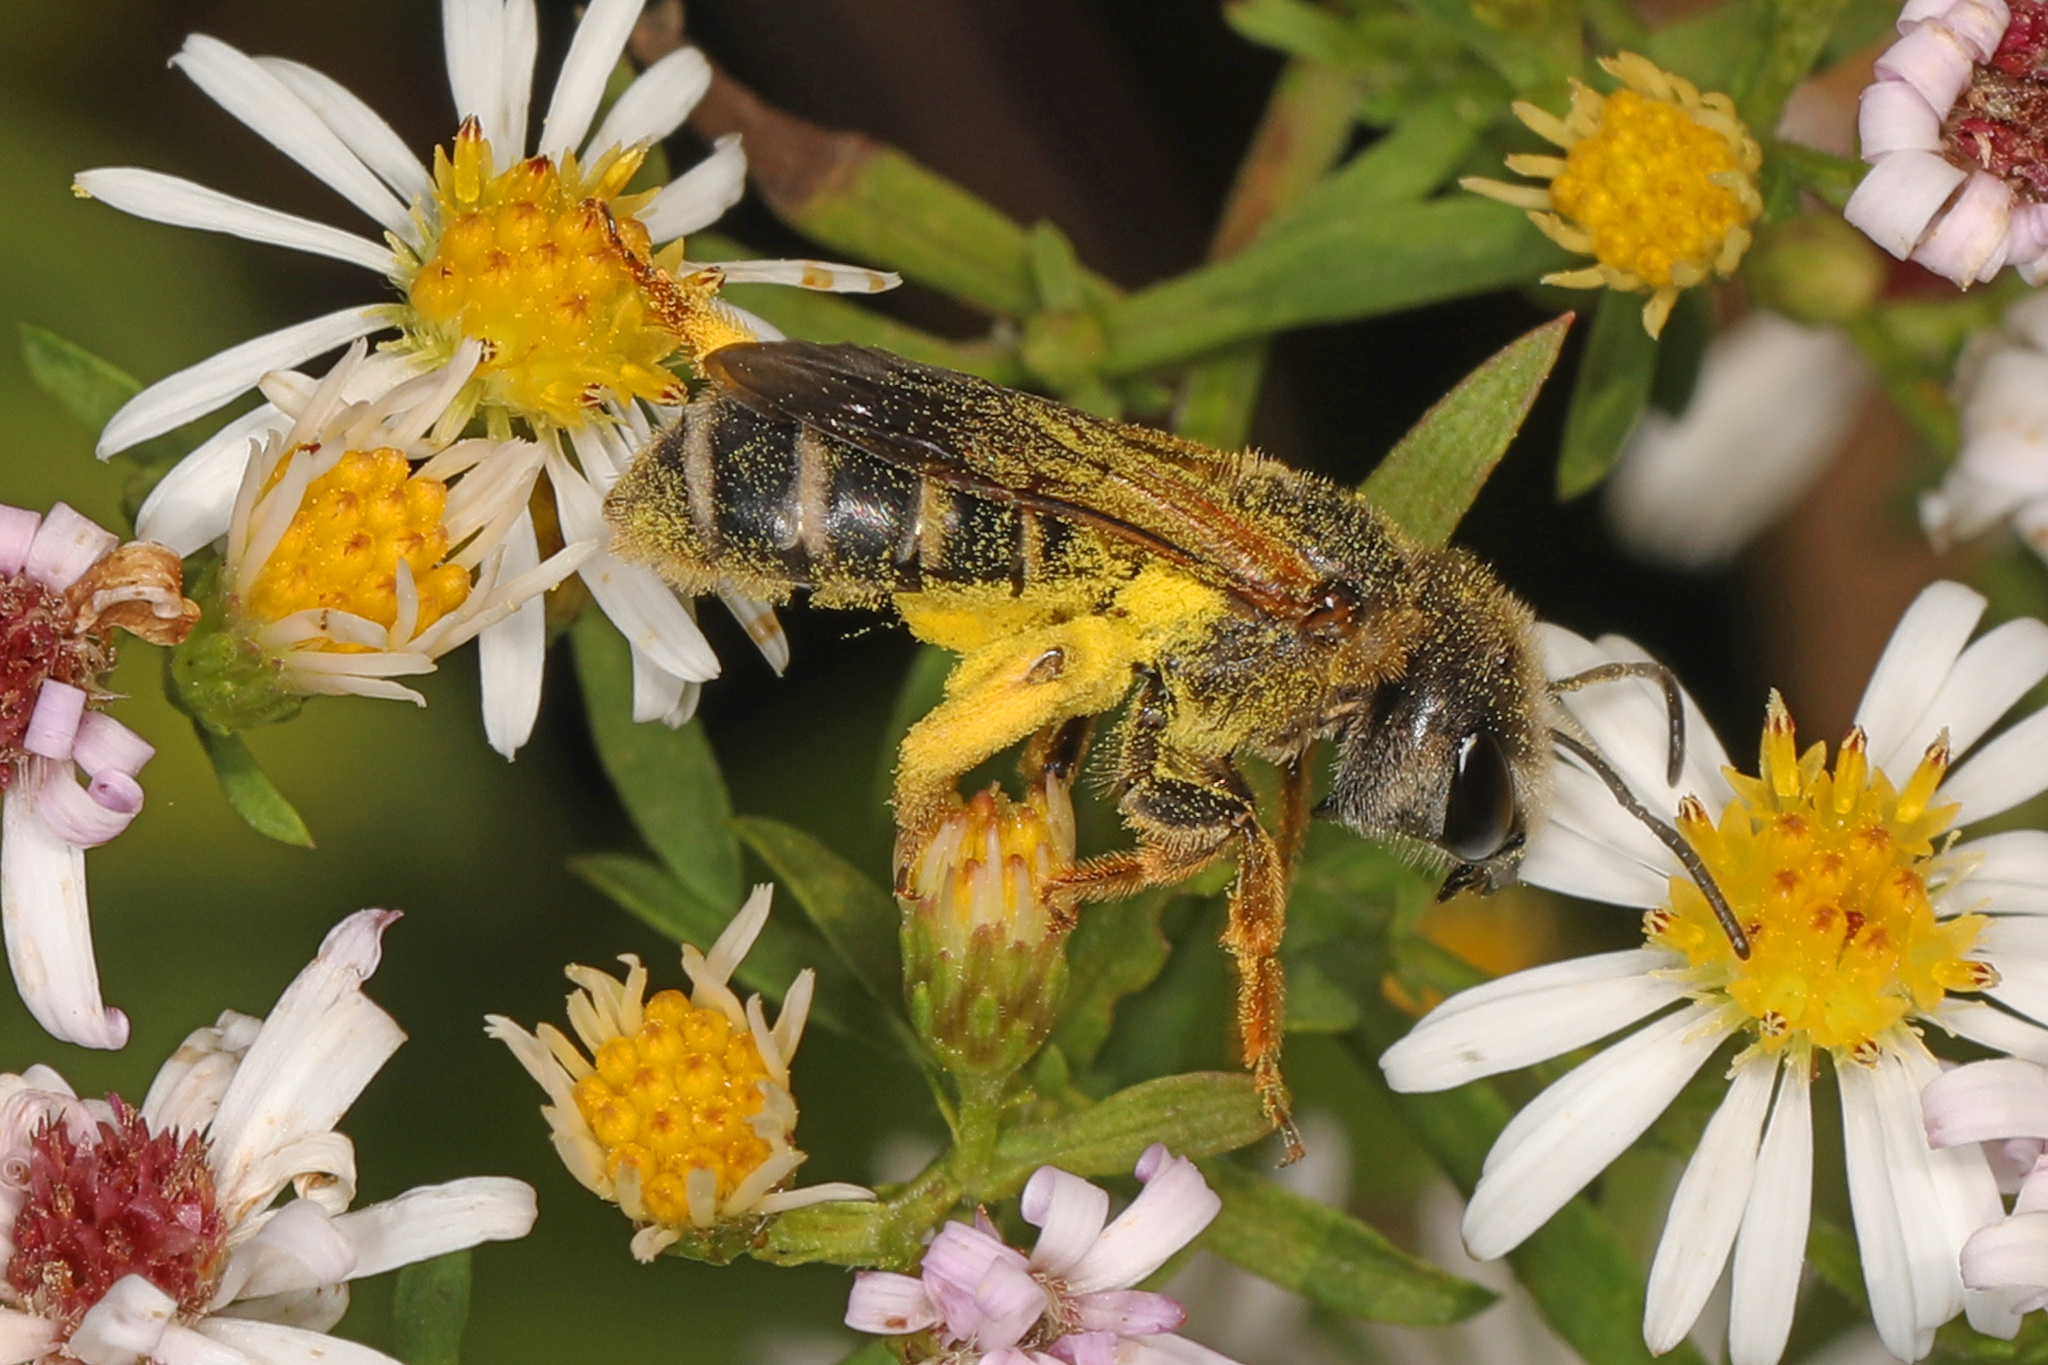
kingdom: Animalia
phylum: Arthropoda
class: Insecta
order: Hymenoptera
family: Halictidae
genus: Halictus
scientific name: Halictus ligatus
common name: Ligated furrow bee
